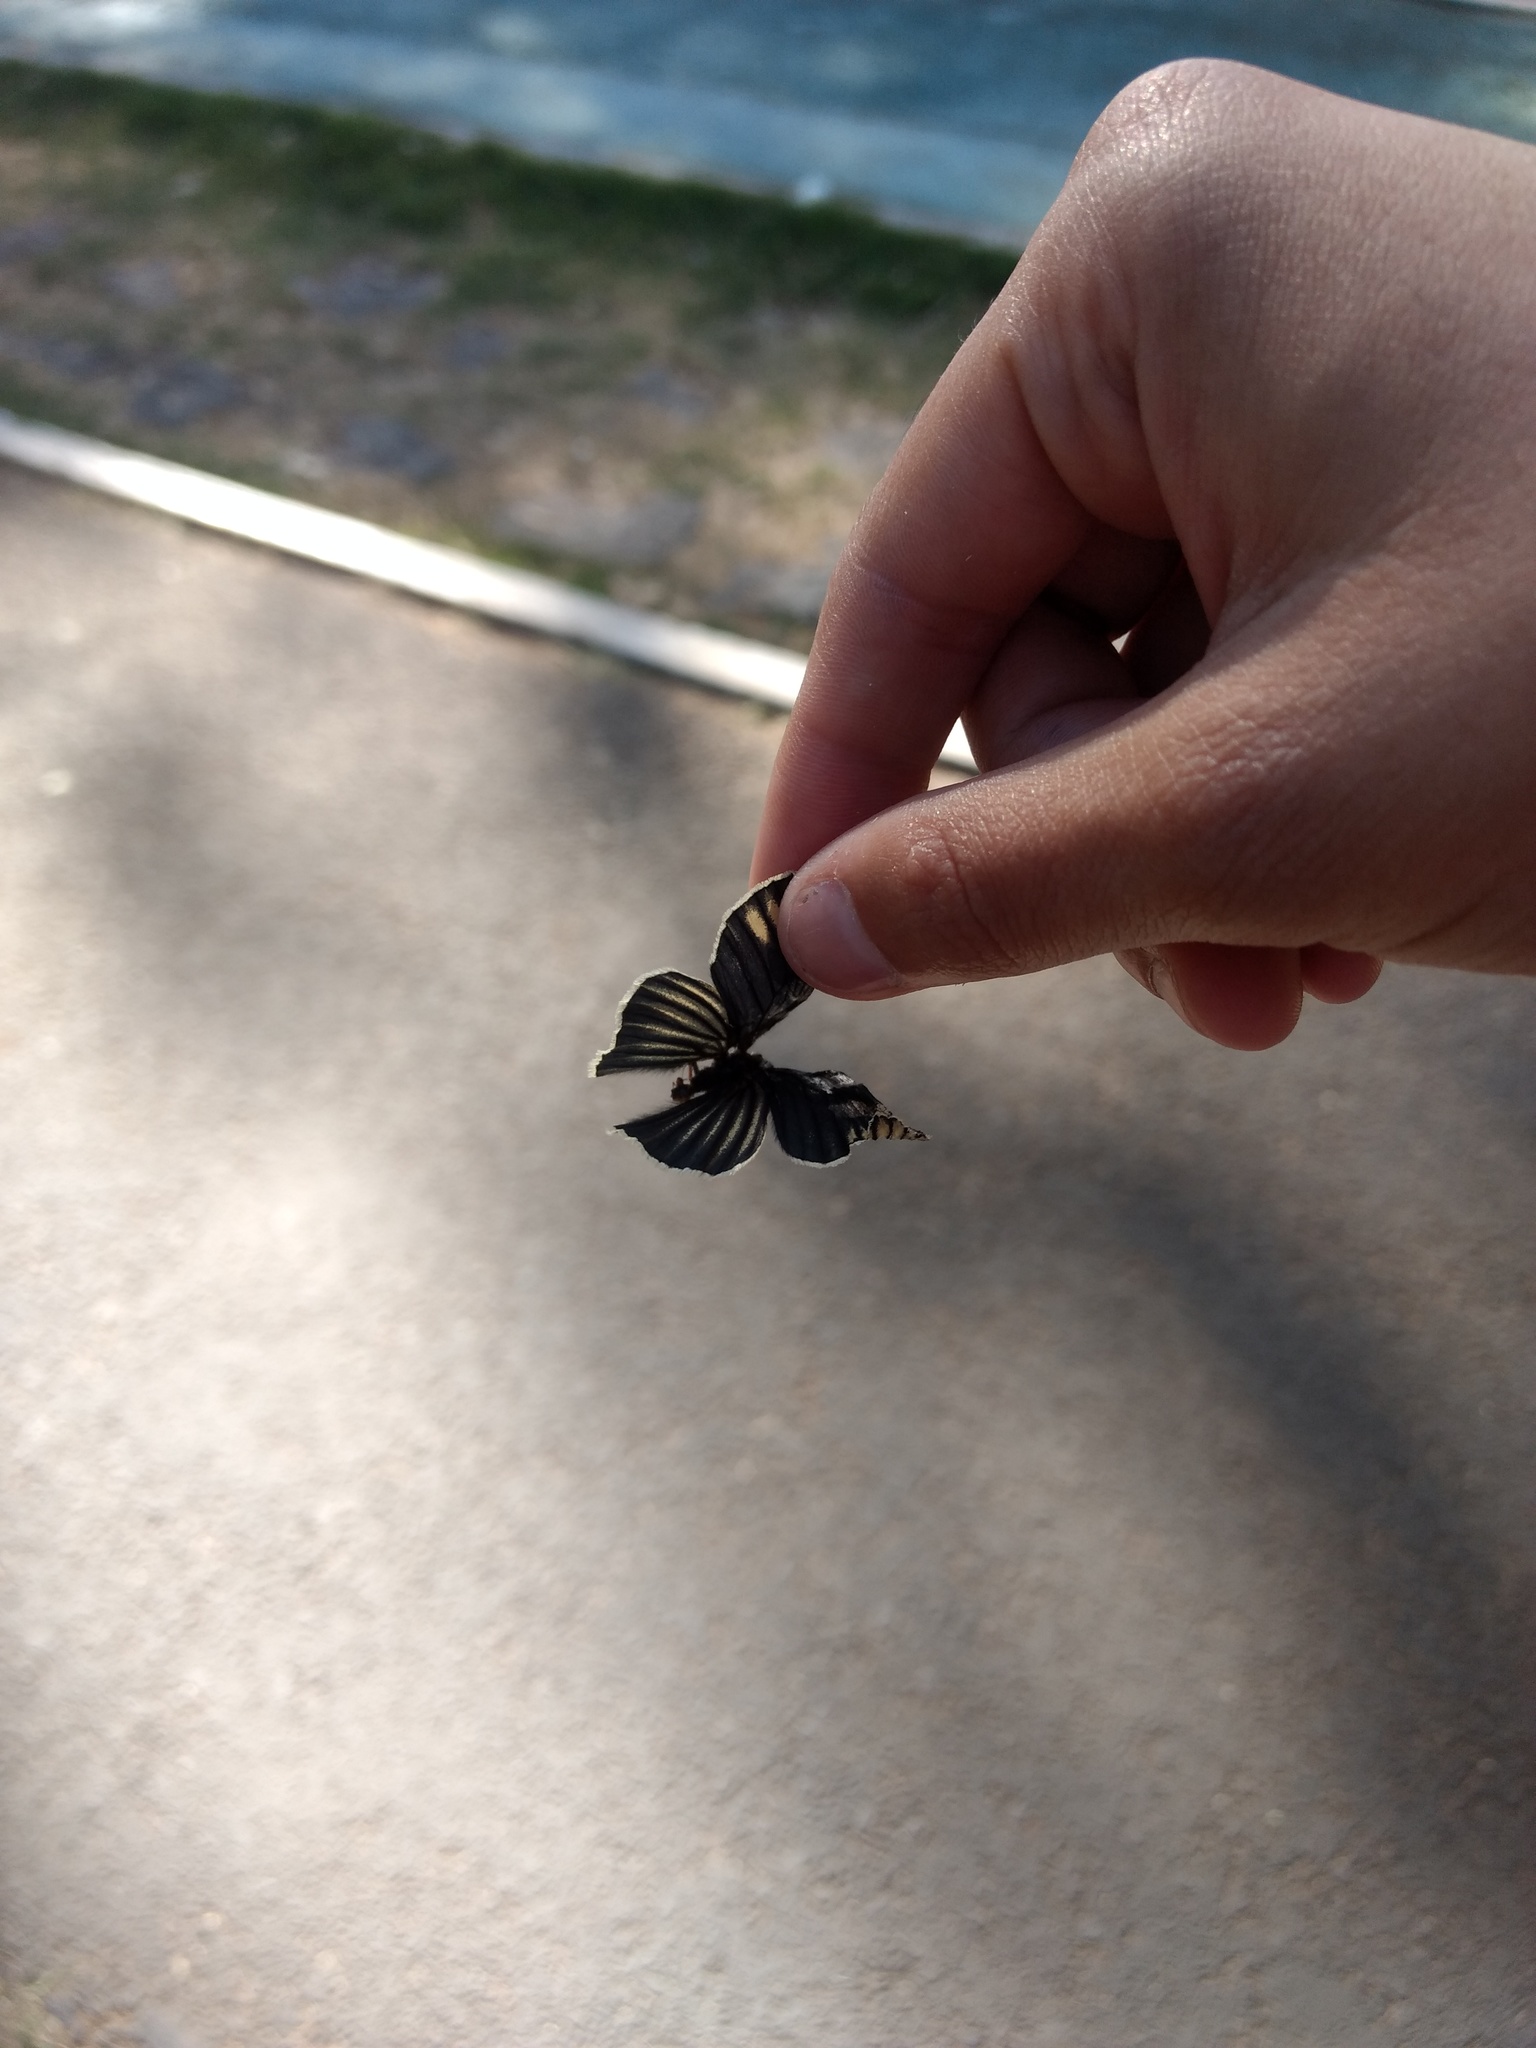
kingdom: Animalia
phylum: Arthropoda
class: Insecta
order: Lepidoptera
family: Nymphalidae
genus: Chlosyne
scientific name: Chlosyne ehrenbergii
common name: White-rayed patch
